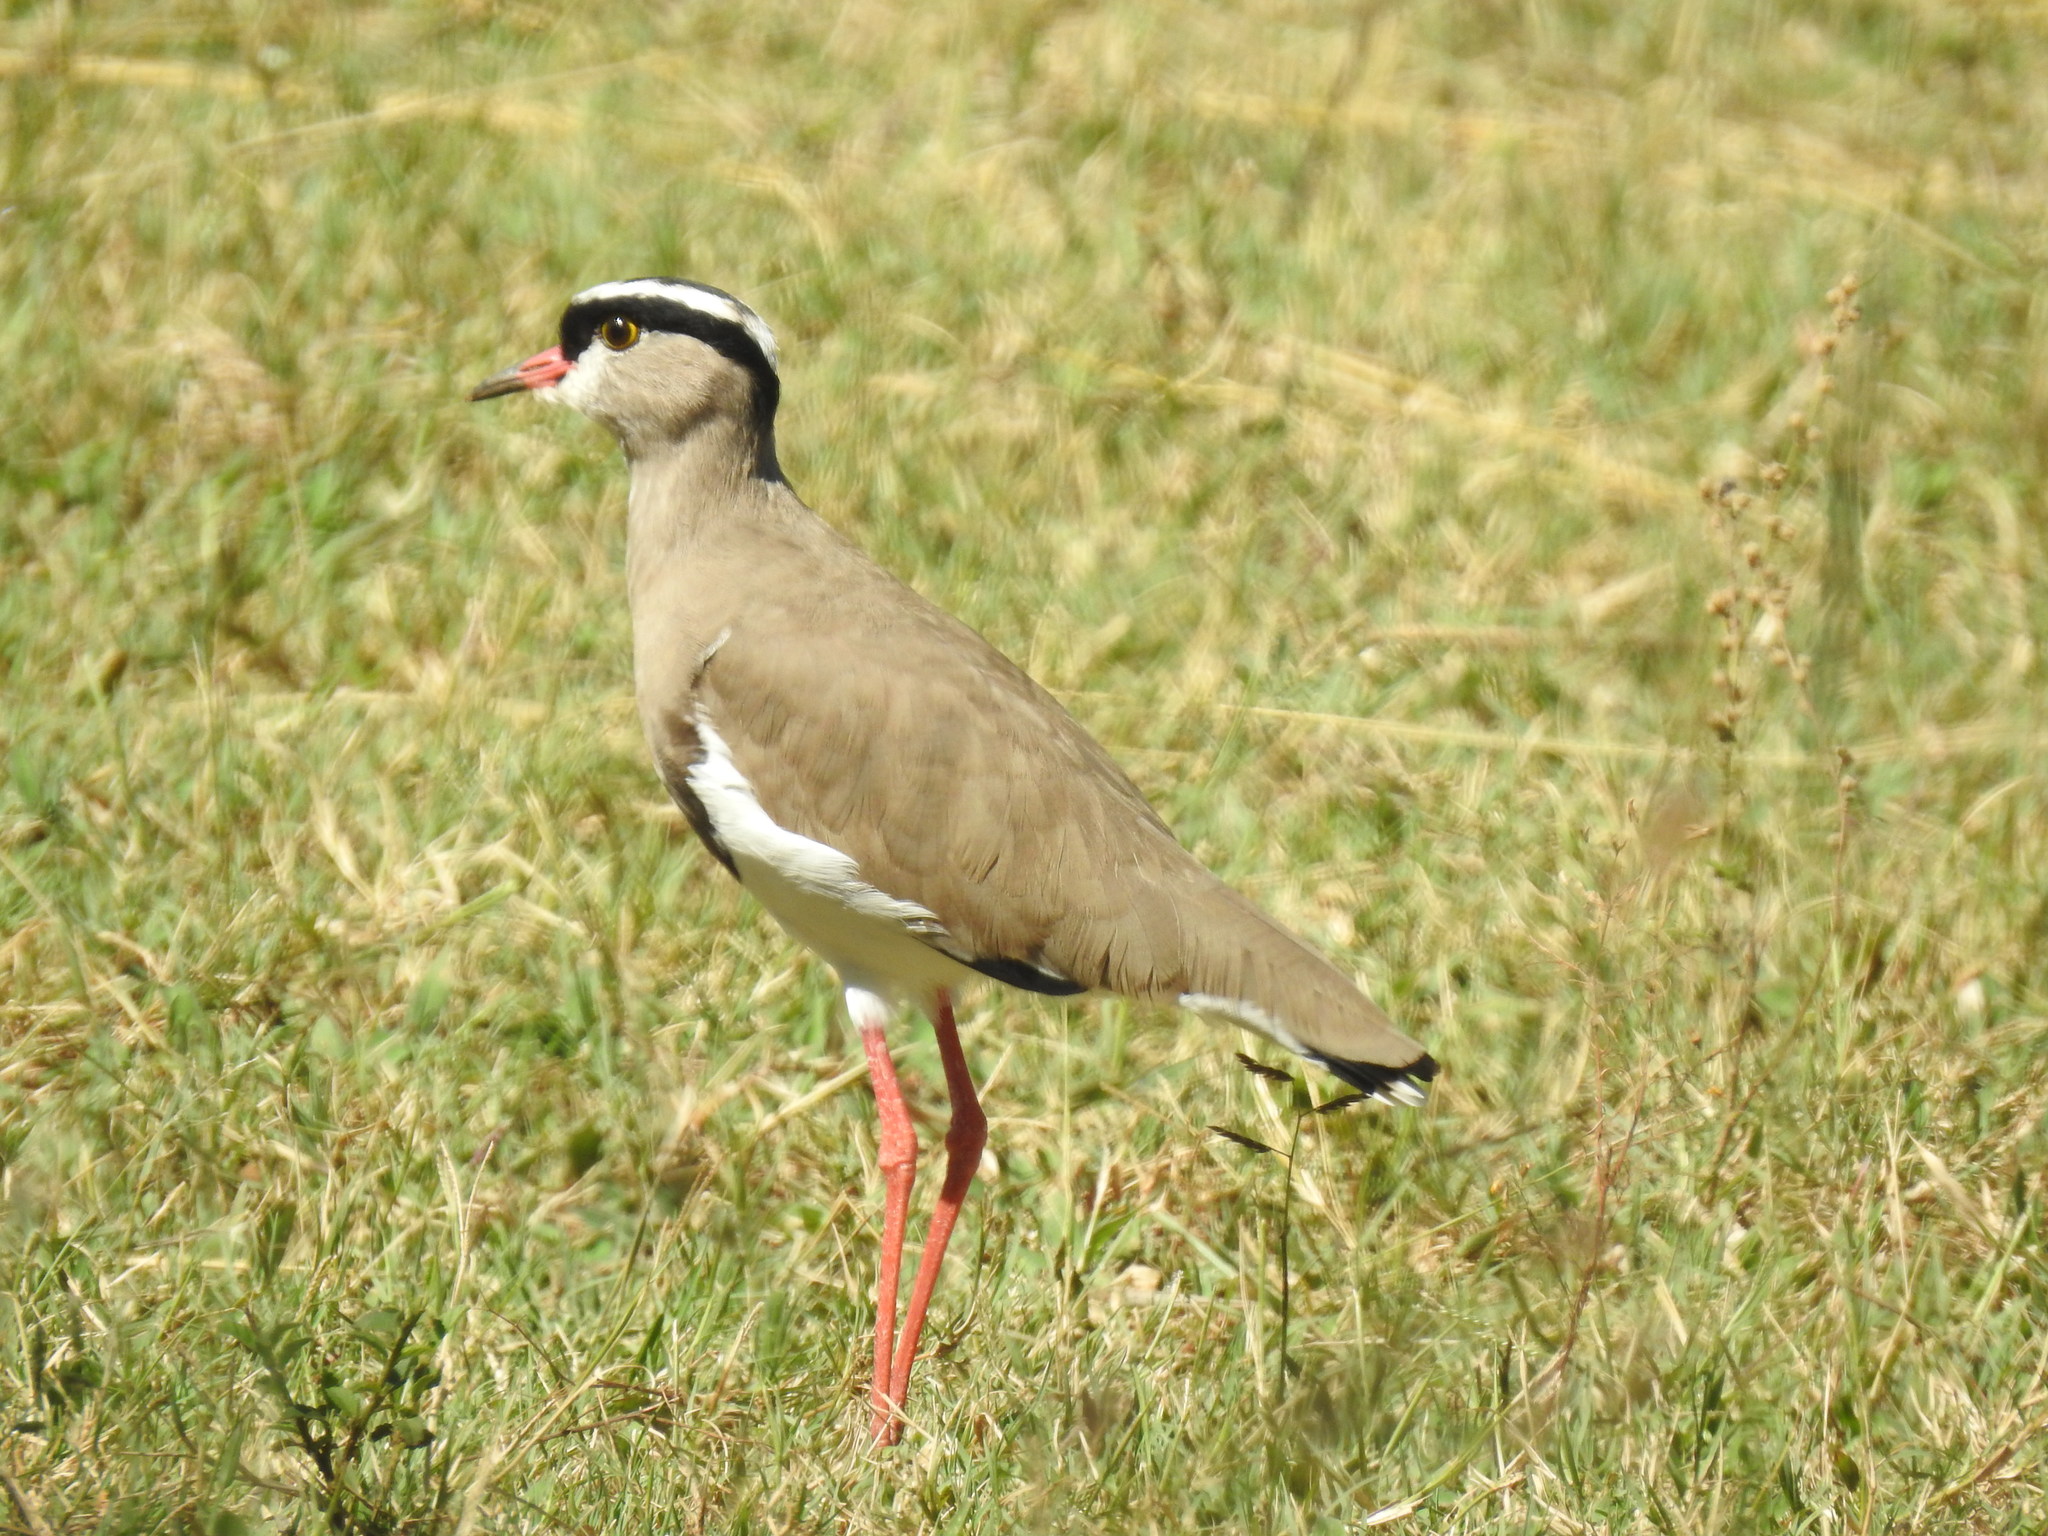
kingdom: Animalia
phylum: Chordata
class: Aves
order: Charadriiformes
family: Charadriidae
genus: Vanellus
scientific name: Vanellus coronatus
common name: Crowned lapwing
